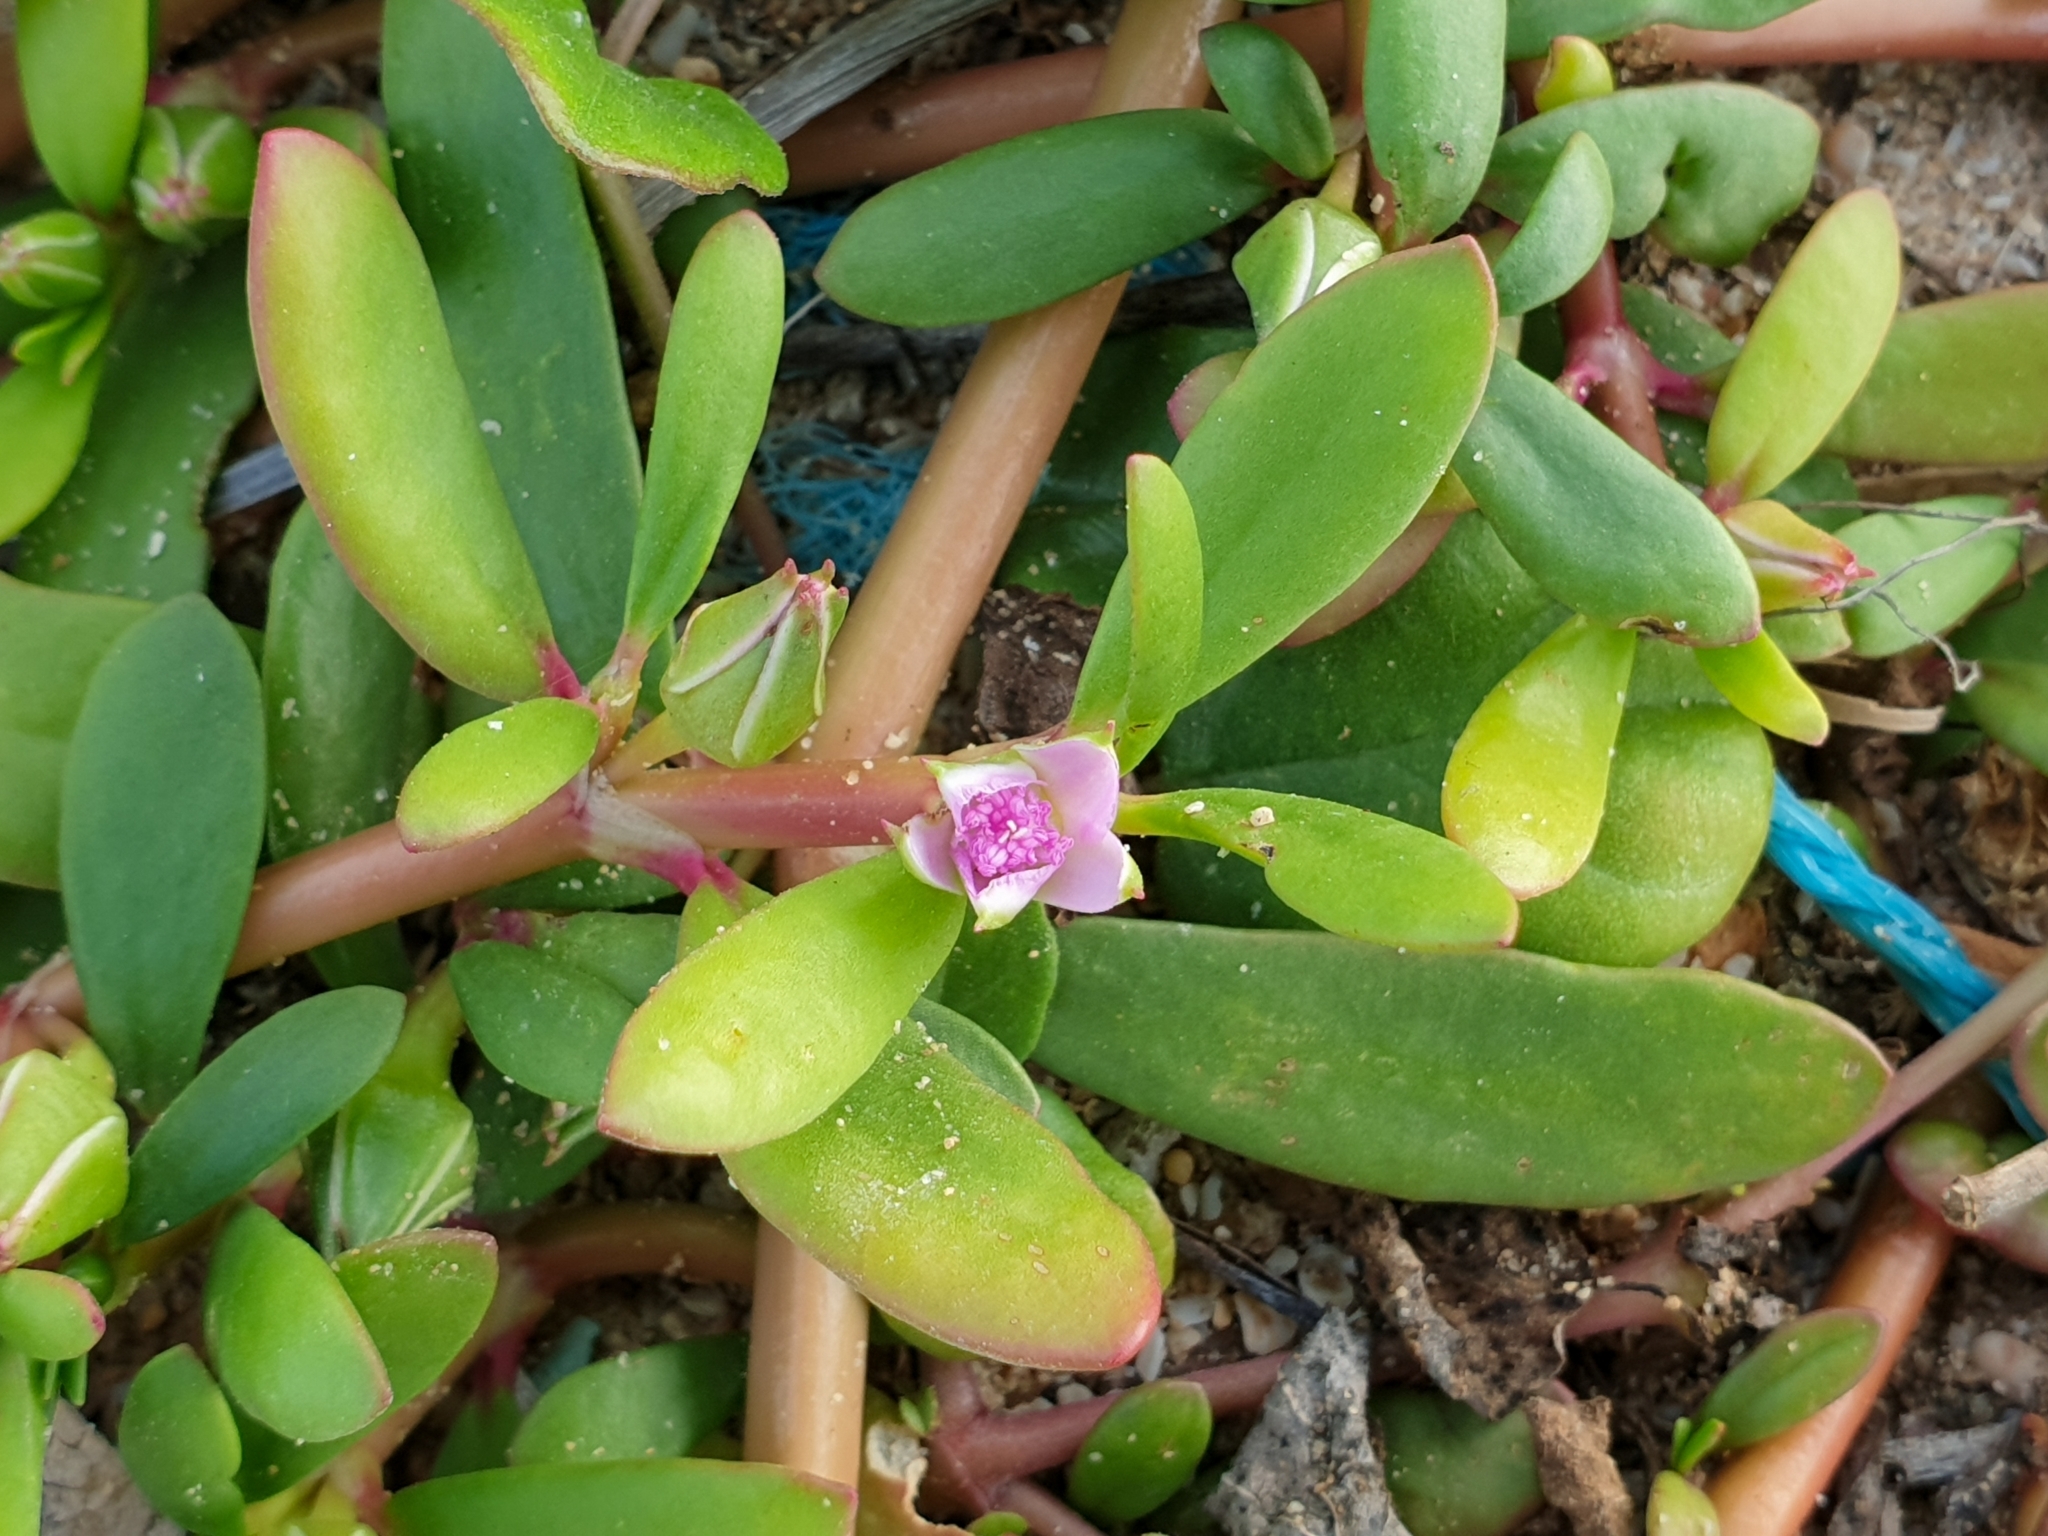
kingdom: Plantae
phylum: Tracheophyta
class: Magnoliopsida
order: Caryophyllales
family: Aizoaceae
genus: Sesuvium
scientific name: Sesuvium portulacastrum
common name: Sea-purslane
